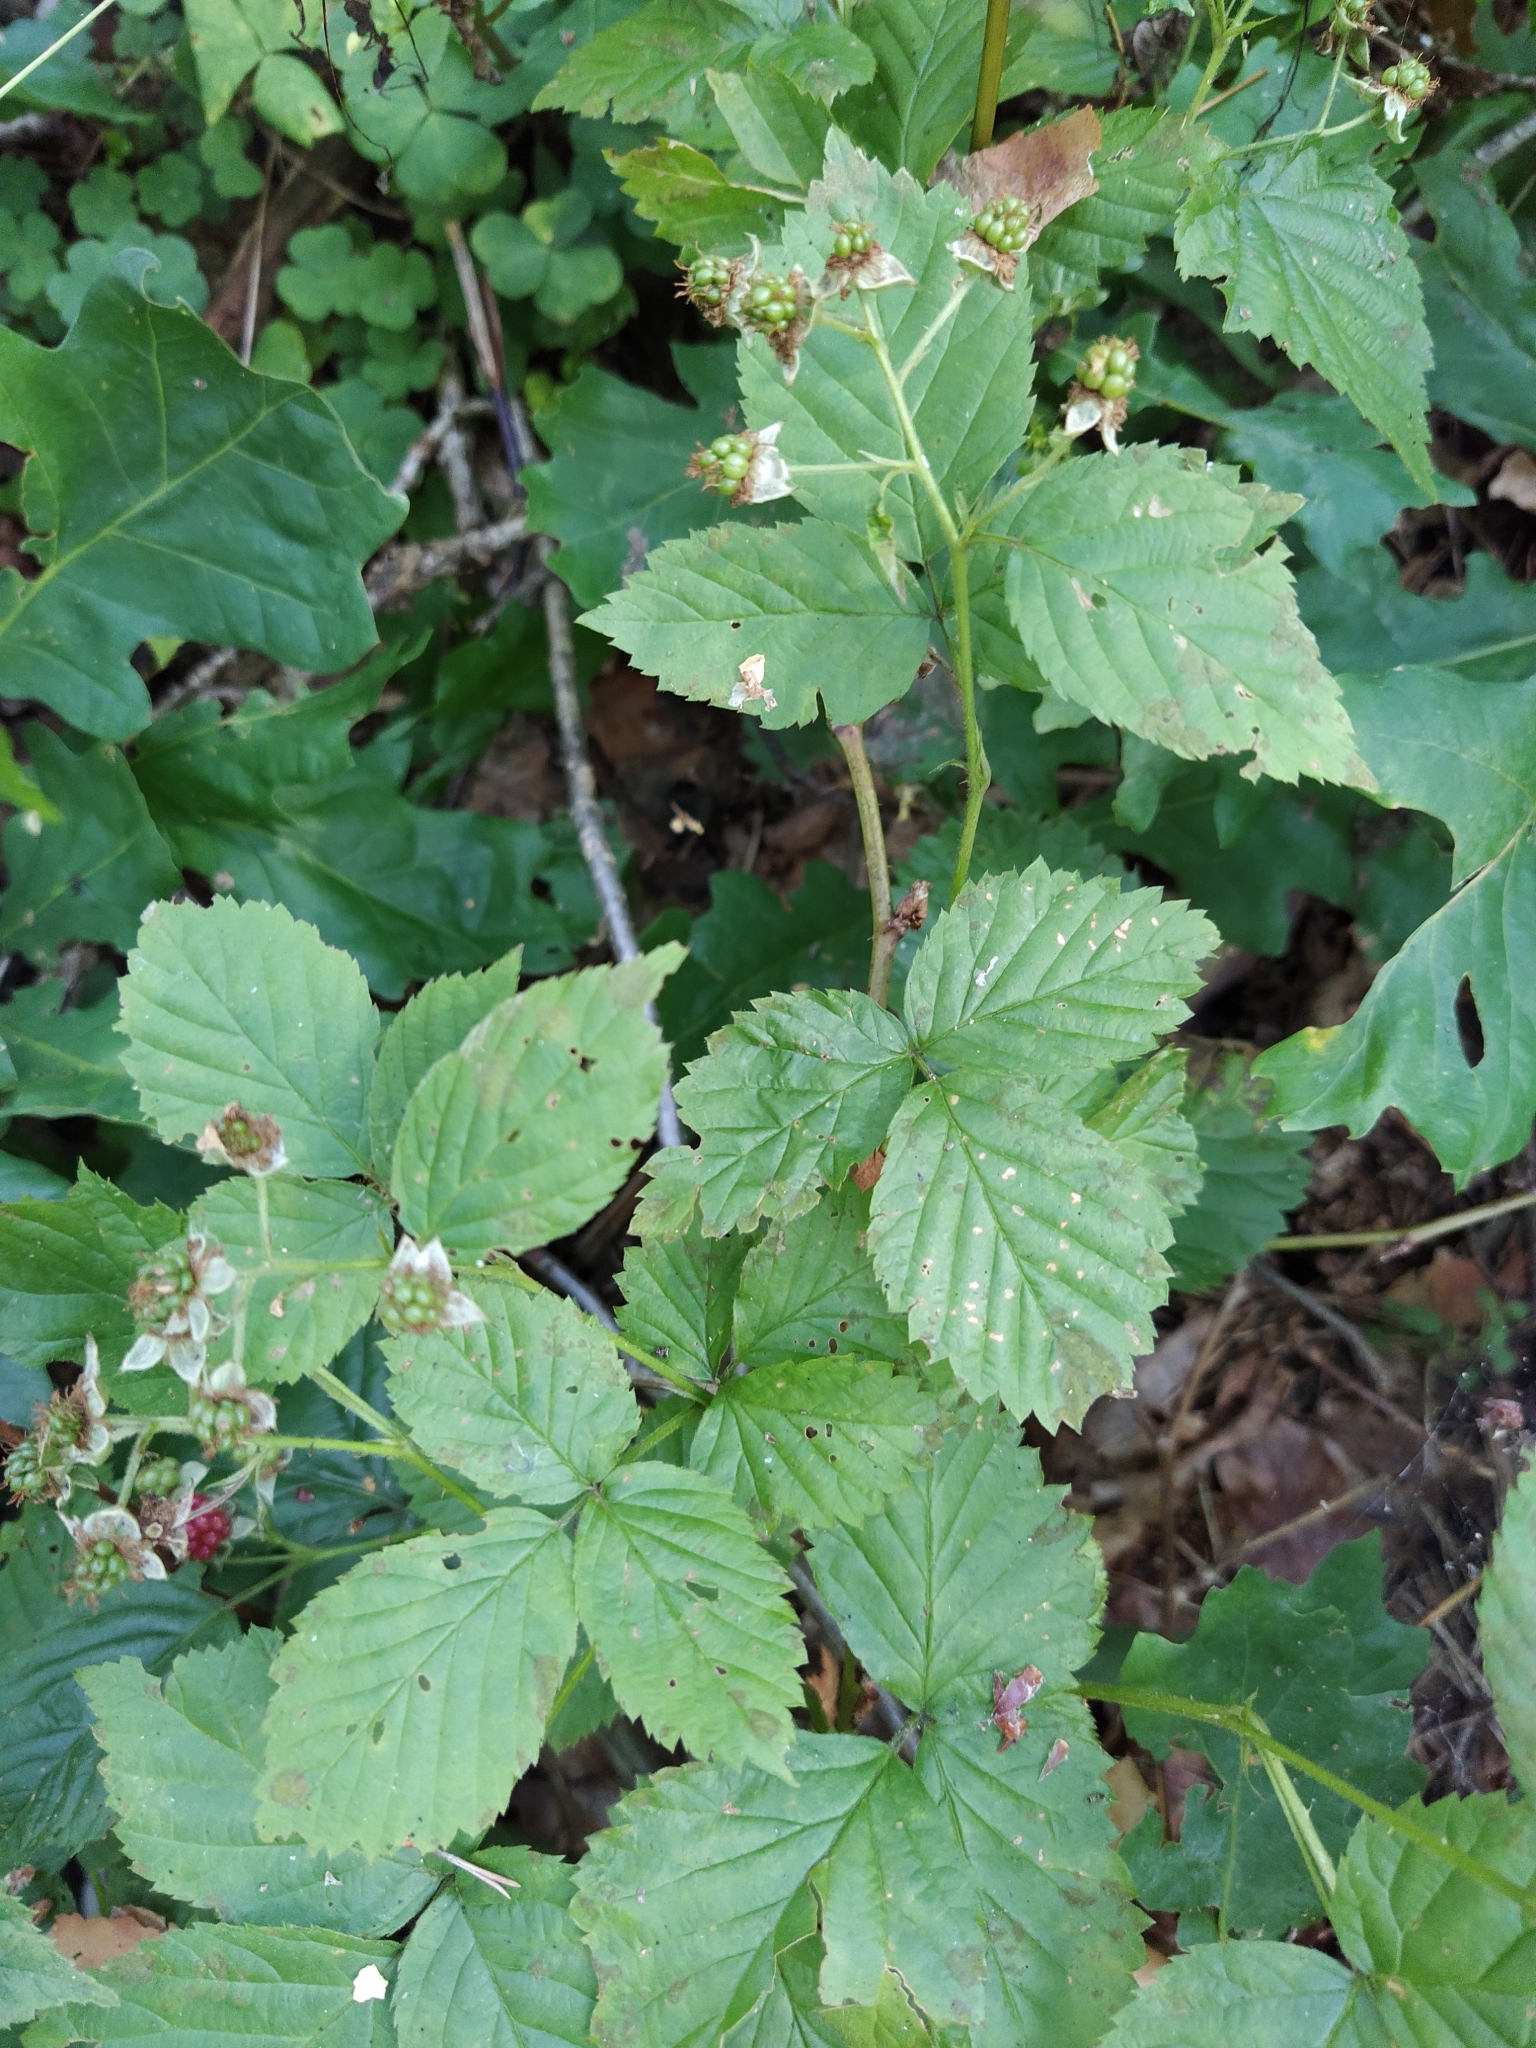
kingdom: Plantae
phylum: Tracheophyta
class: Magnoliopsida
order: Rosales
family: Rosaceae
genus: Rubus
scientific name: Rubus polonicus
